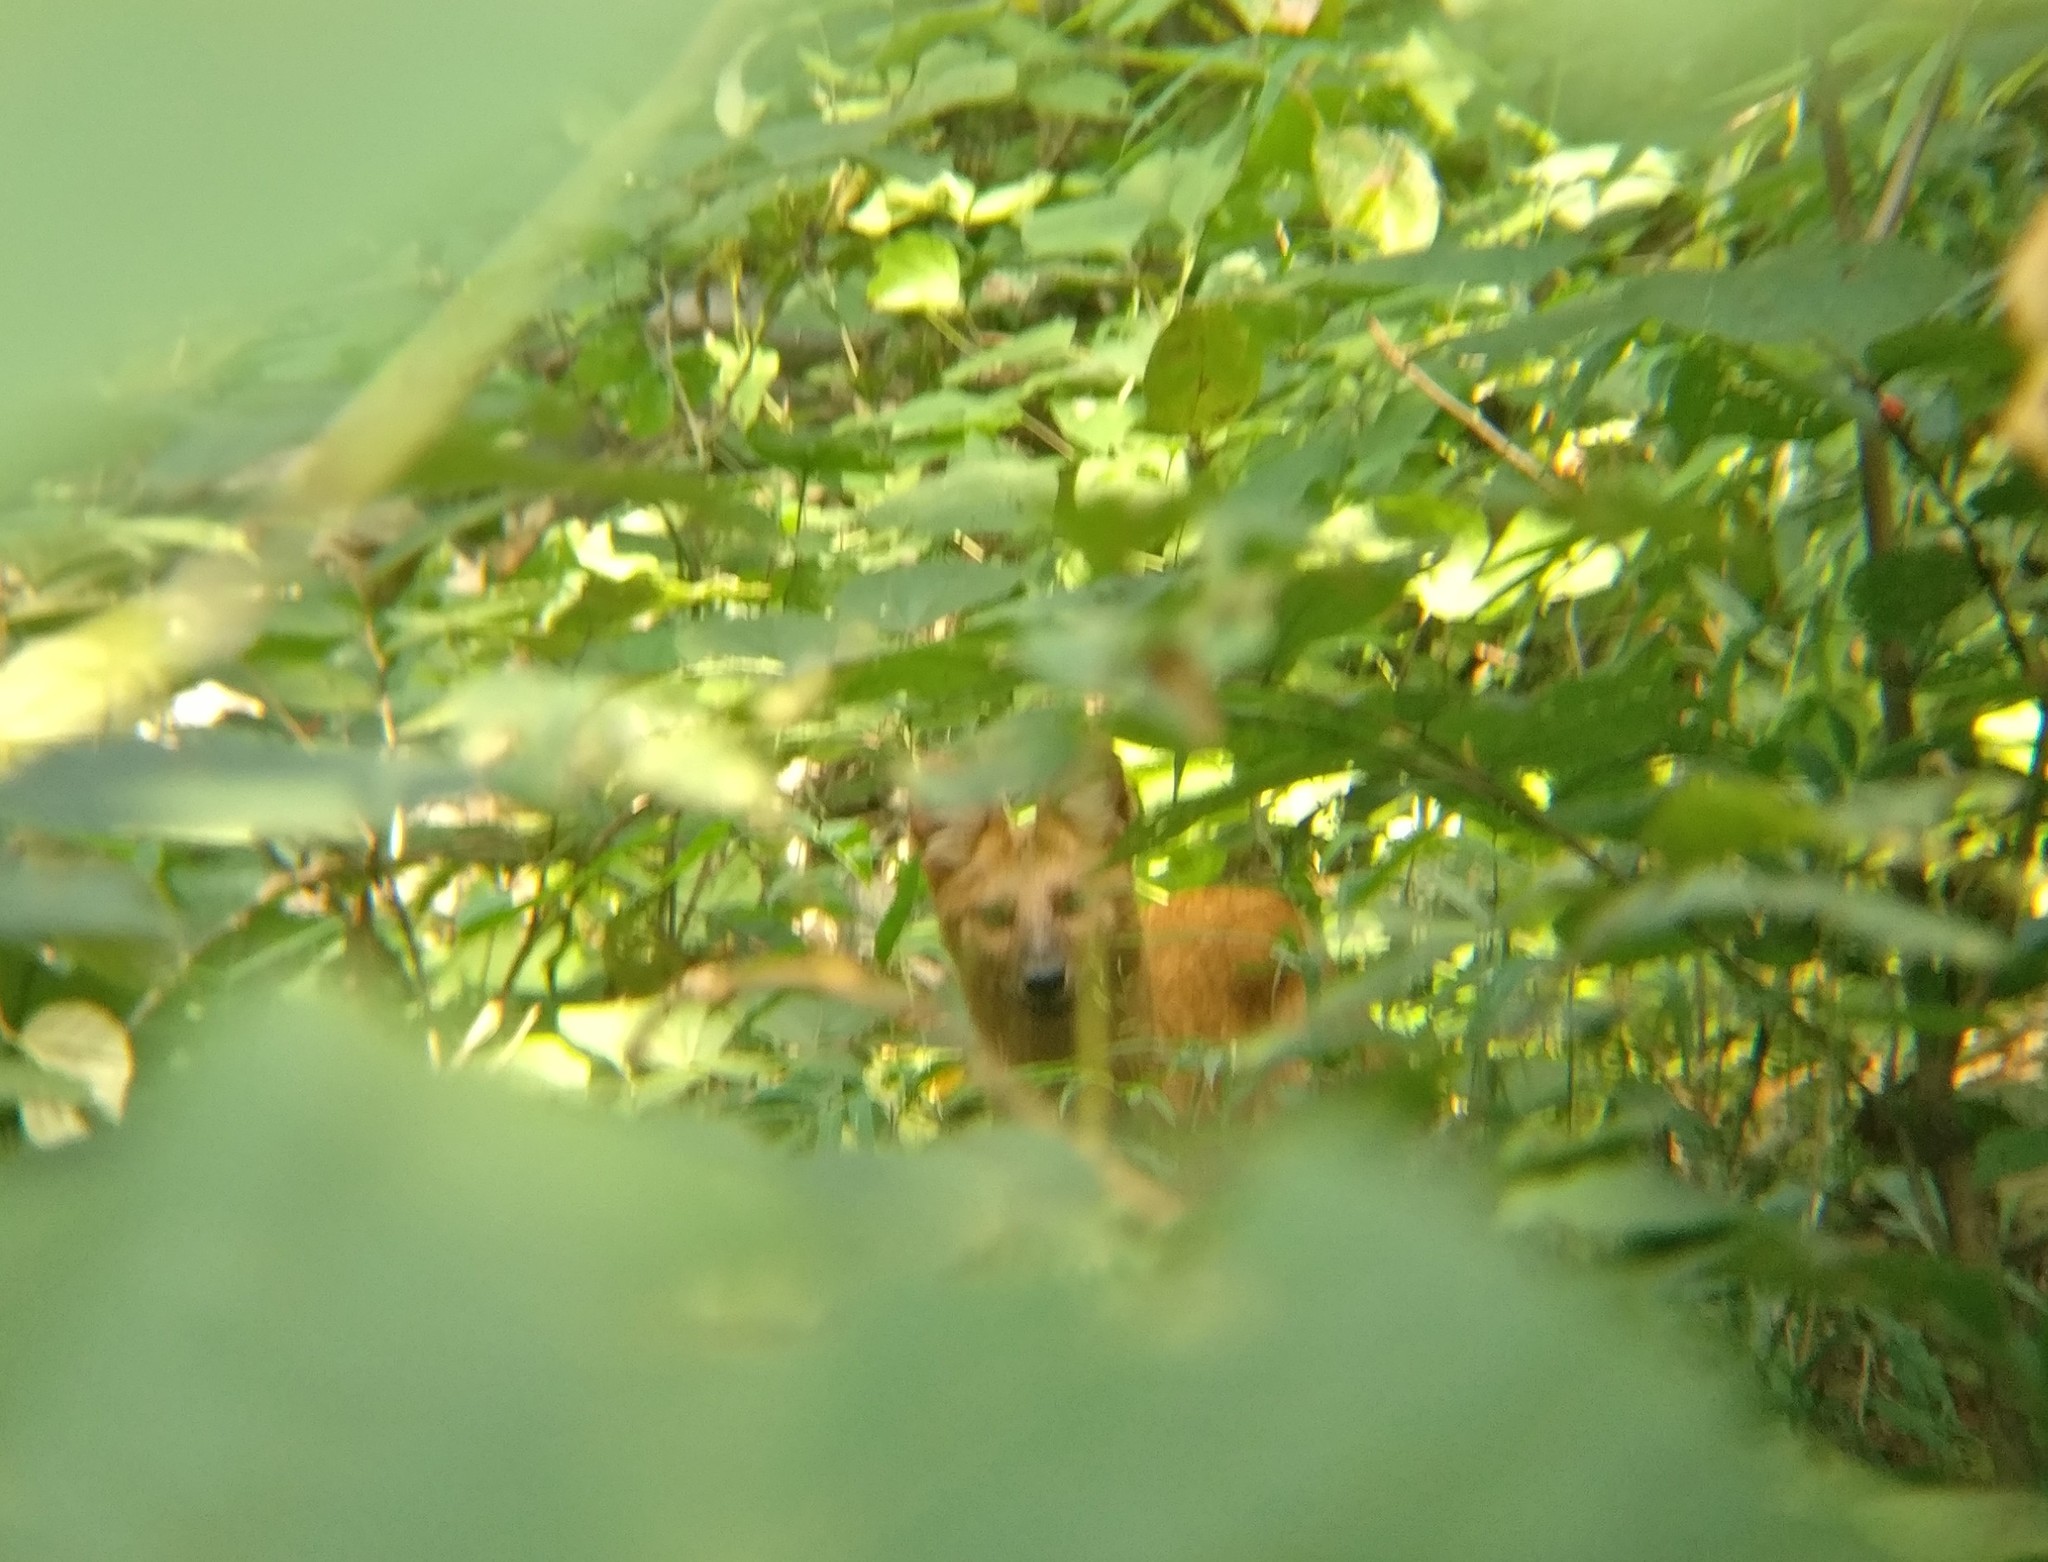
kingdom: Animalia
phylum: Chordata
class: Mammalia
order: Carnivora
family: Canidae
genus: Cuon
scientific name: Cuon alpinus
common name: Dhole
